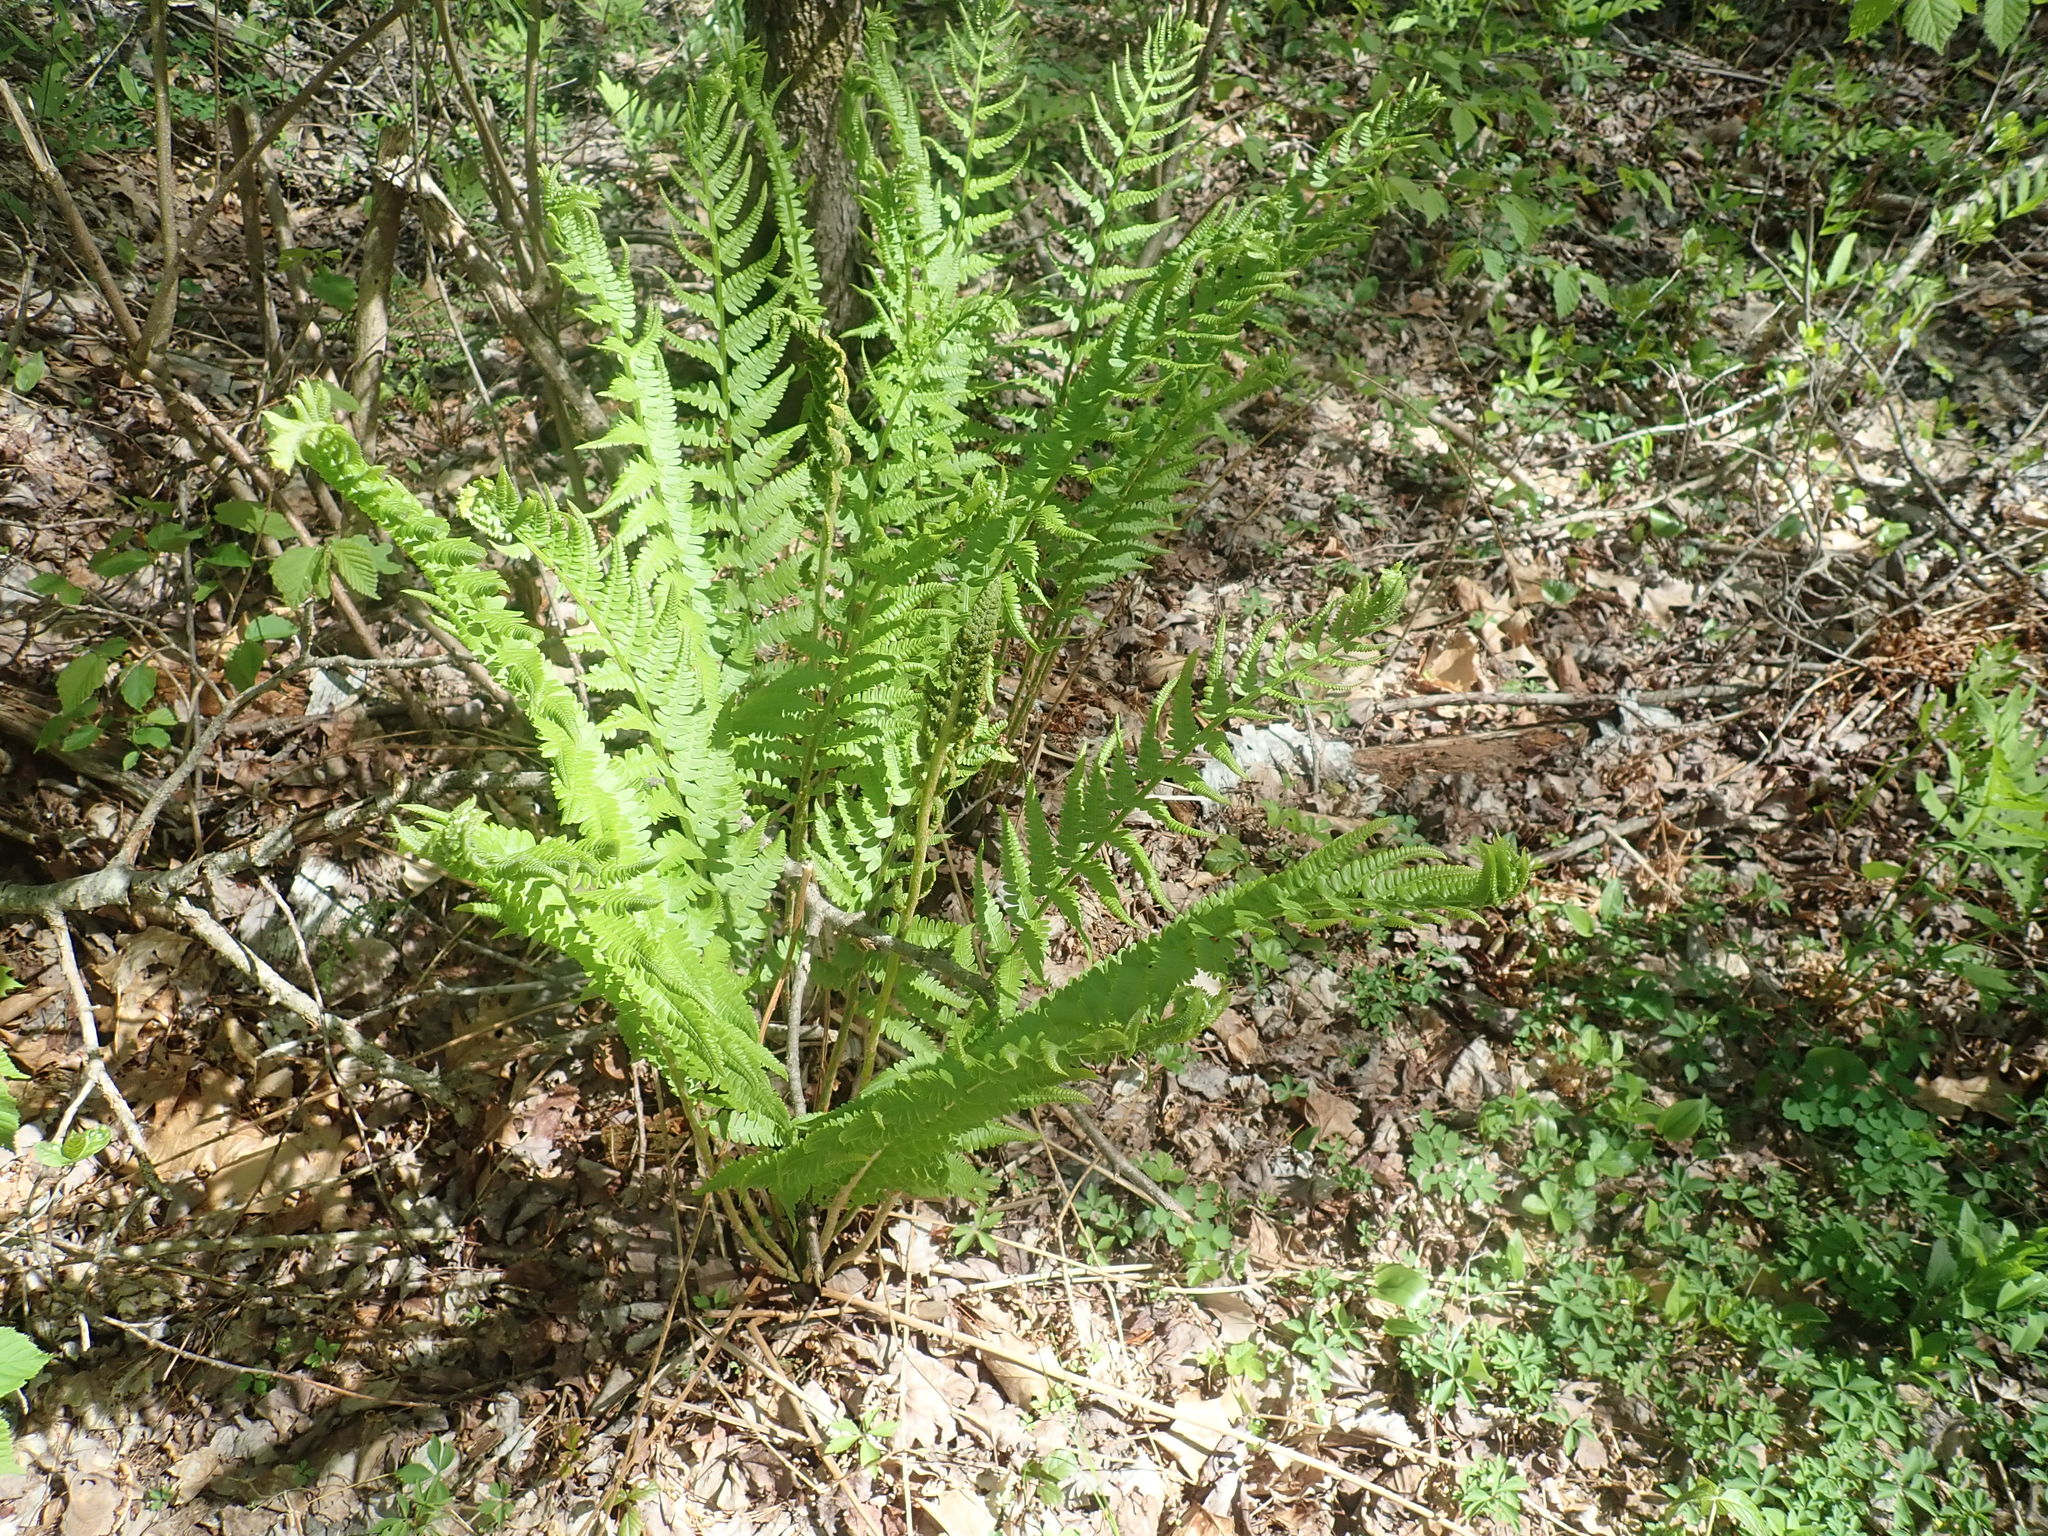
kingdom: Plantae
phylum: Tracheophyta
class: Polypodiopsida
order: Osmundales
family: Osmundaceae
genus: Osmundastrum
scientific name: Osmundastrum cinnamomeum
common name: Cinnamon fern
